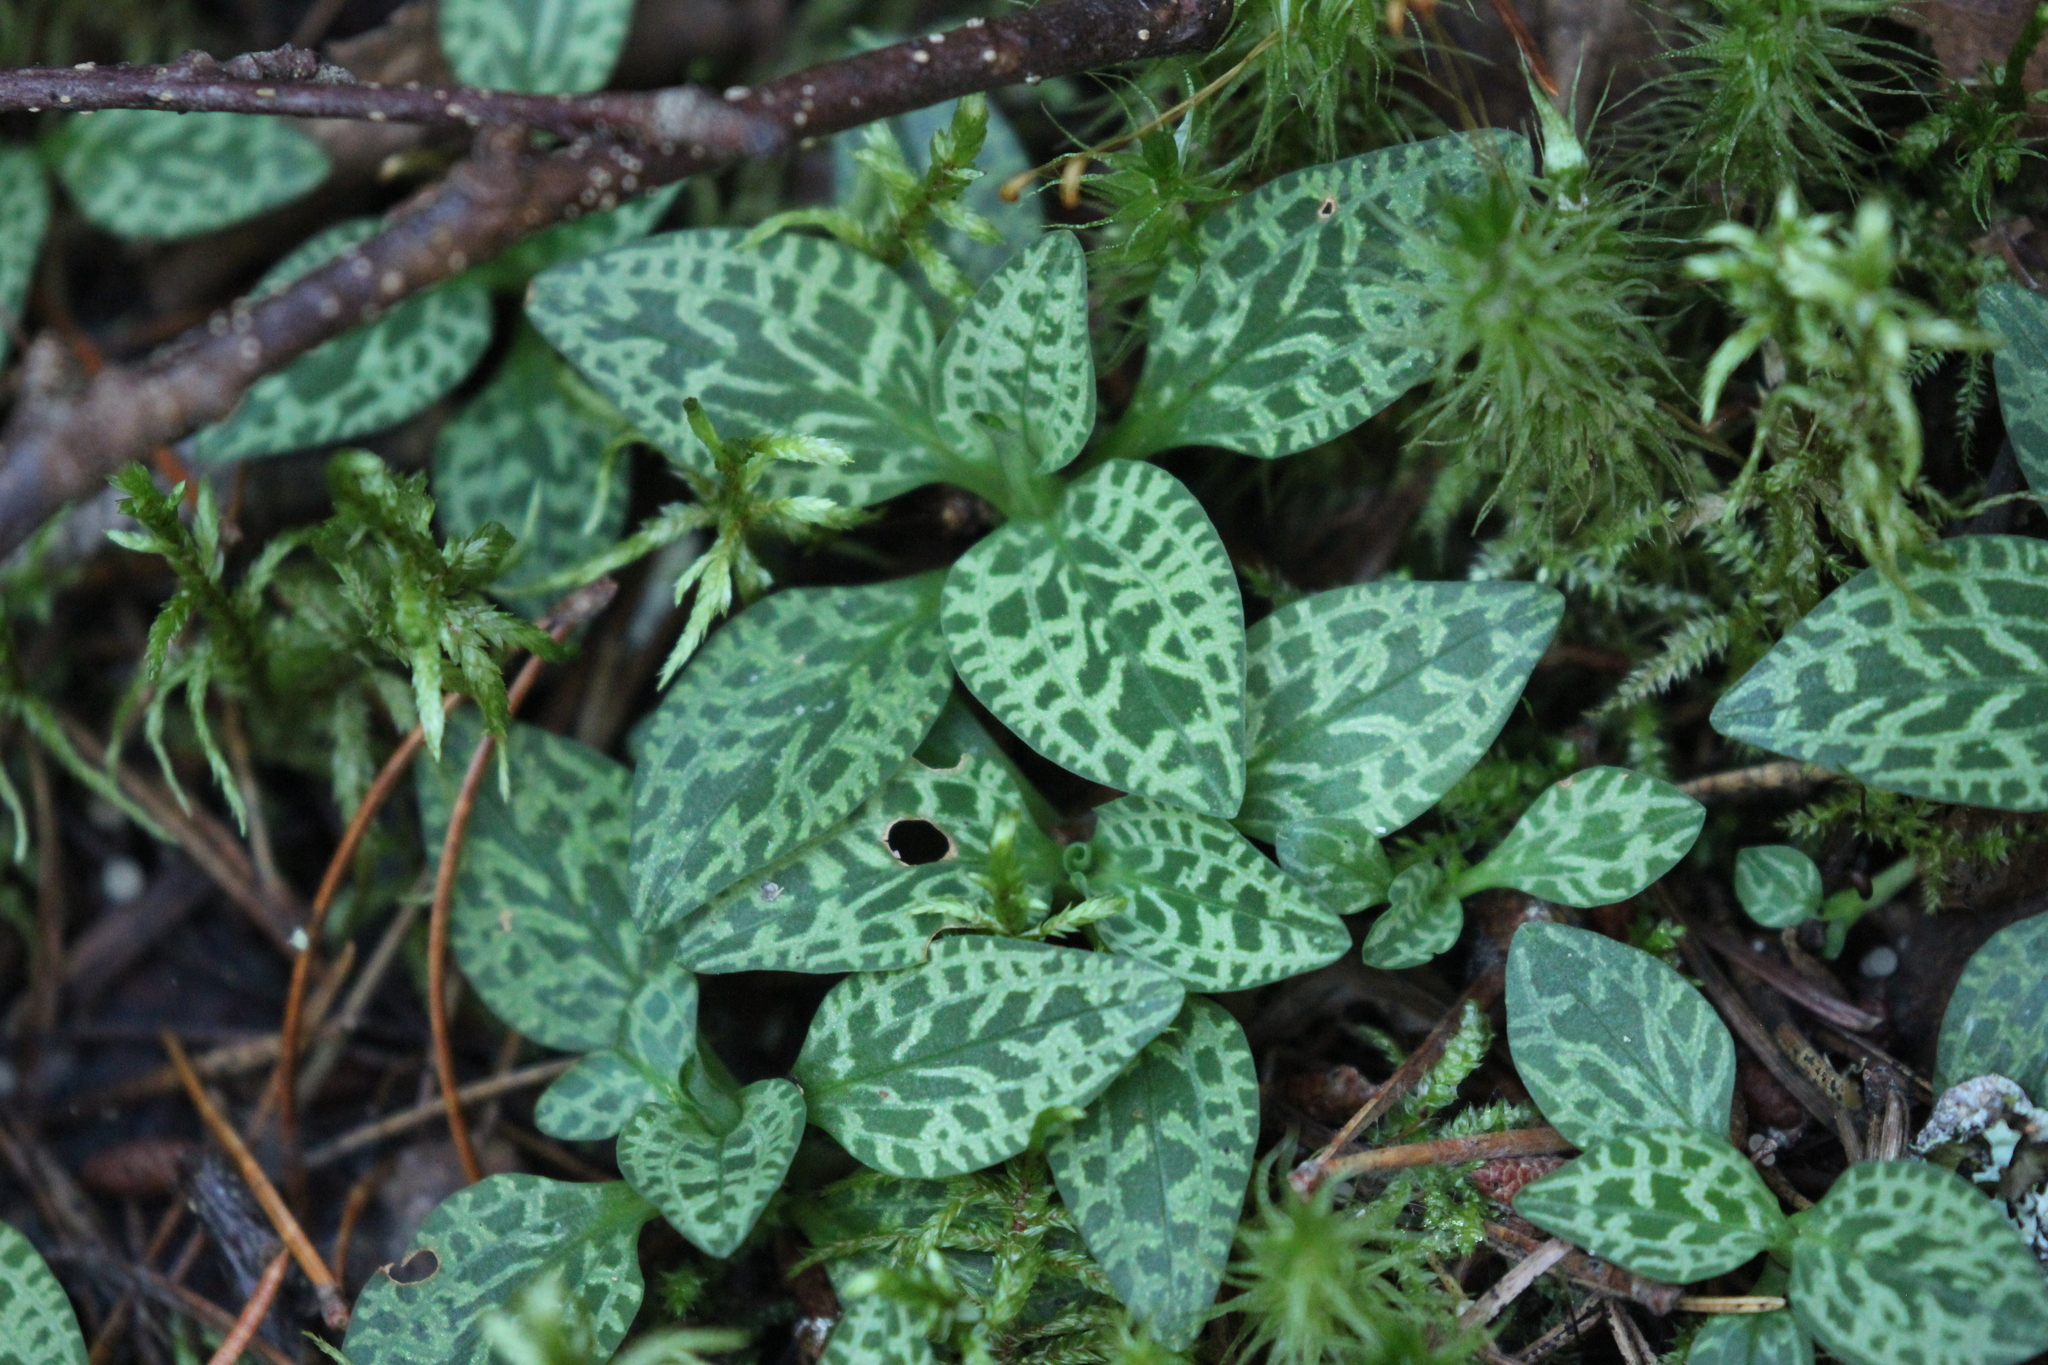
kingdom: Plantae
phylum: Tracheophyta
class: Liliopsida
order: Asparagales
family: Orchidaceae
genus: Goodyera
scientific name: Goodyera repens
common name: Creeping lady's-tresses
